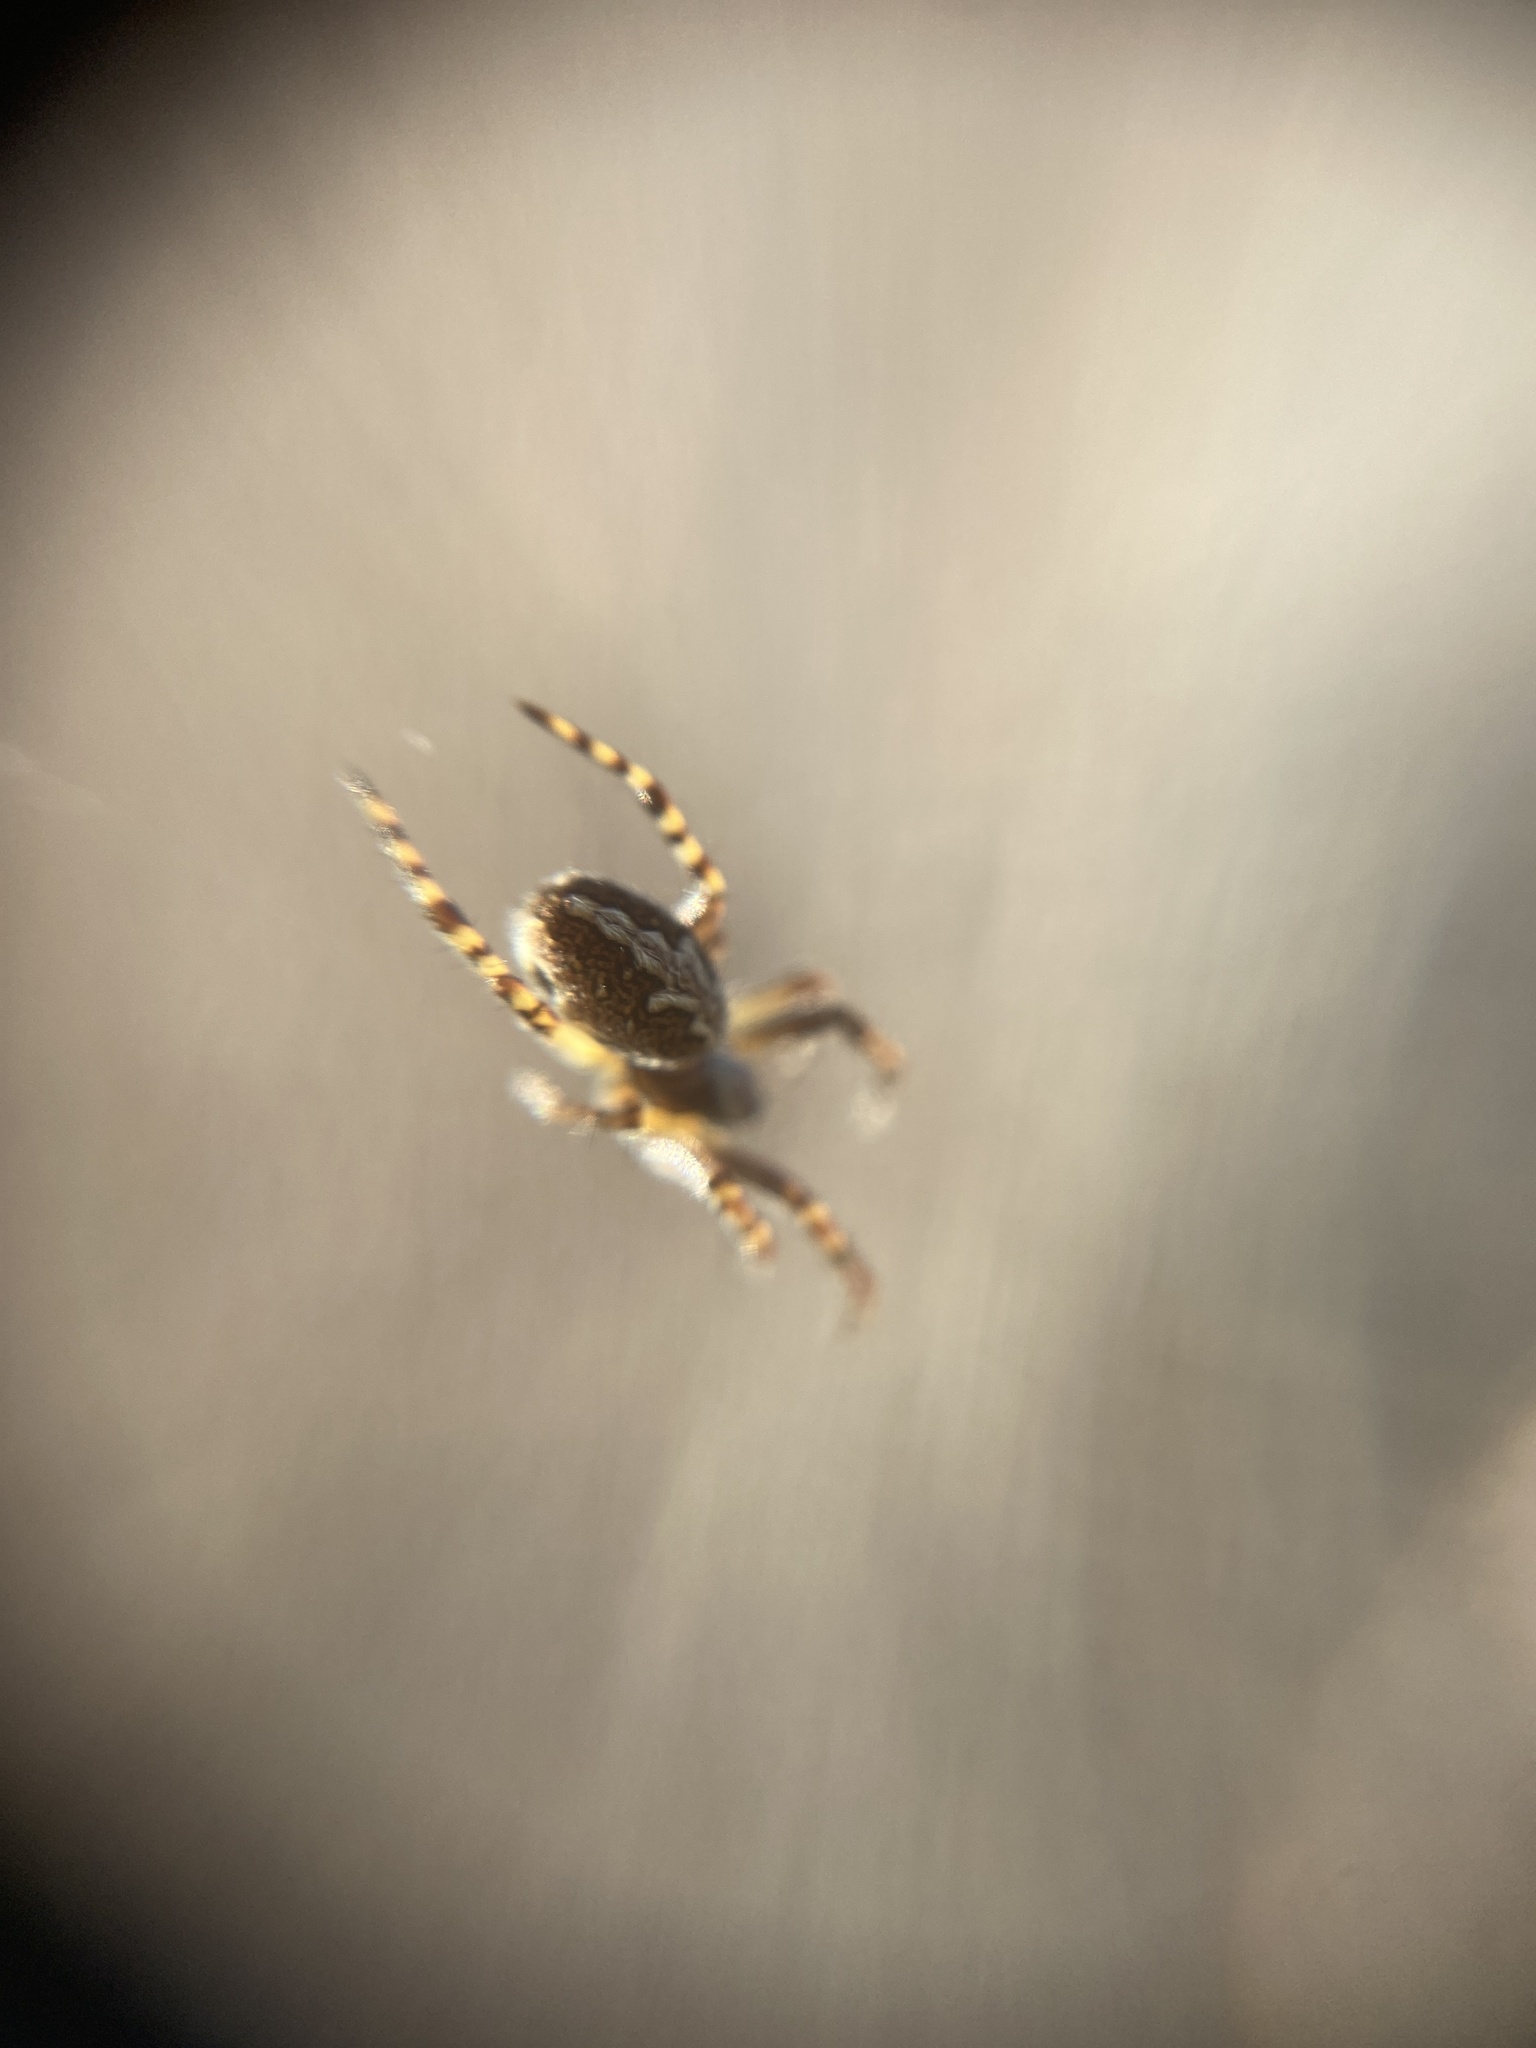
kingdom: Animalia
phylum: Arthropoda
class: Arachnida
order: Araneae
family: Araneidae
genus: Aculepeira
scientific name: Aculepeira ceropegia
